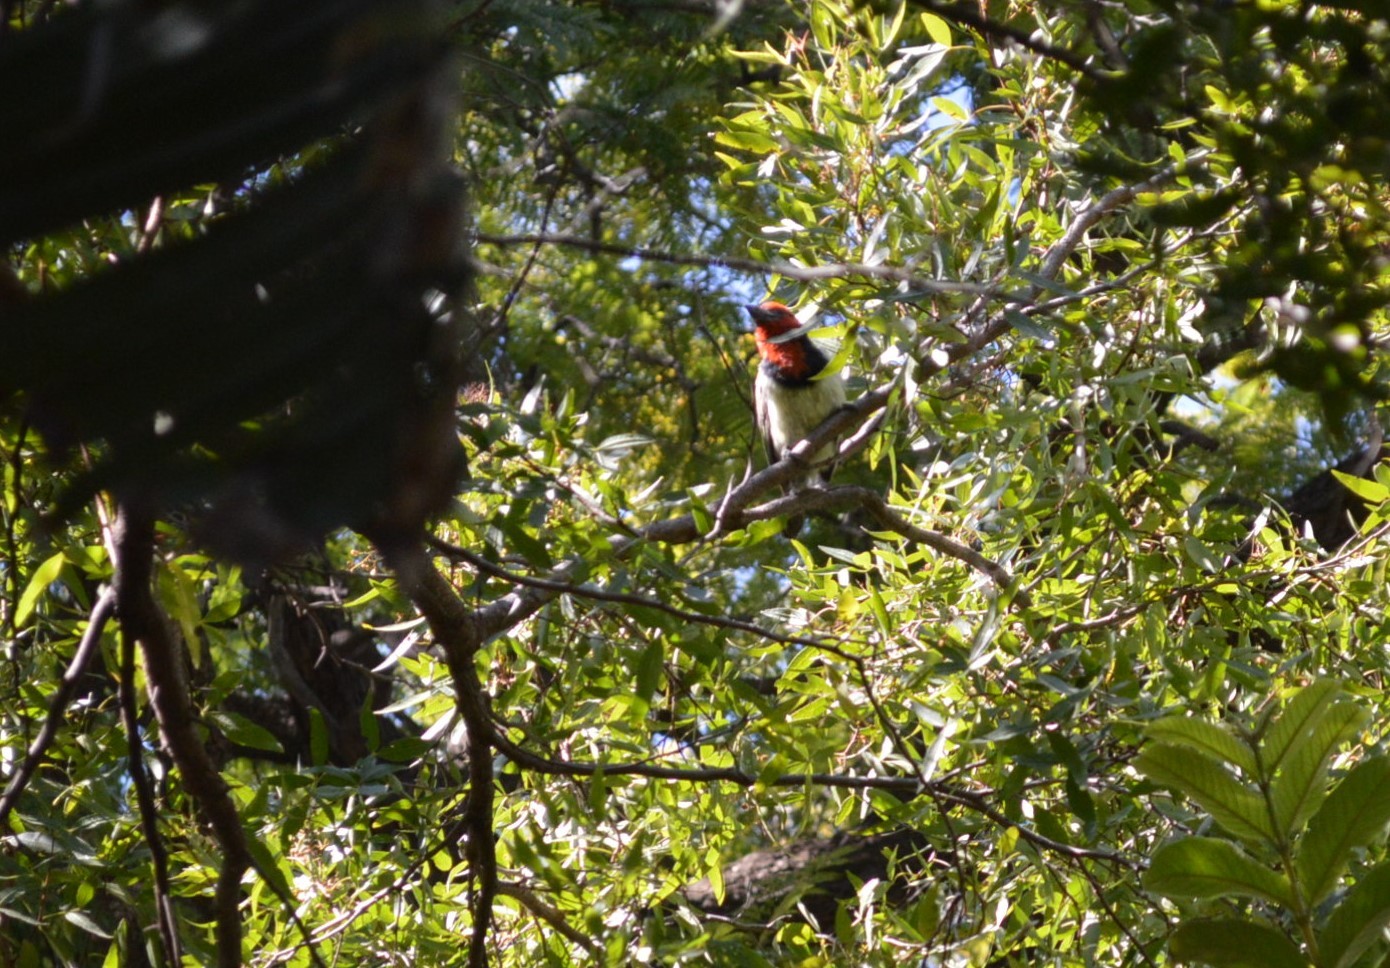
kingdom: Animalia
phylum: Chordata
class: Aves
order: Piciformes
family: Lybiidae
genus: Lybius
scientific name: Lybius torquatus
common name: Black-collared barbet
